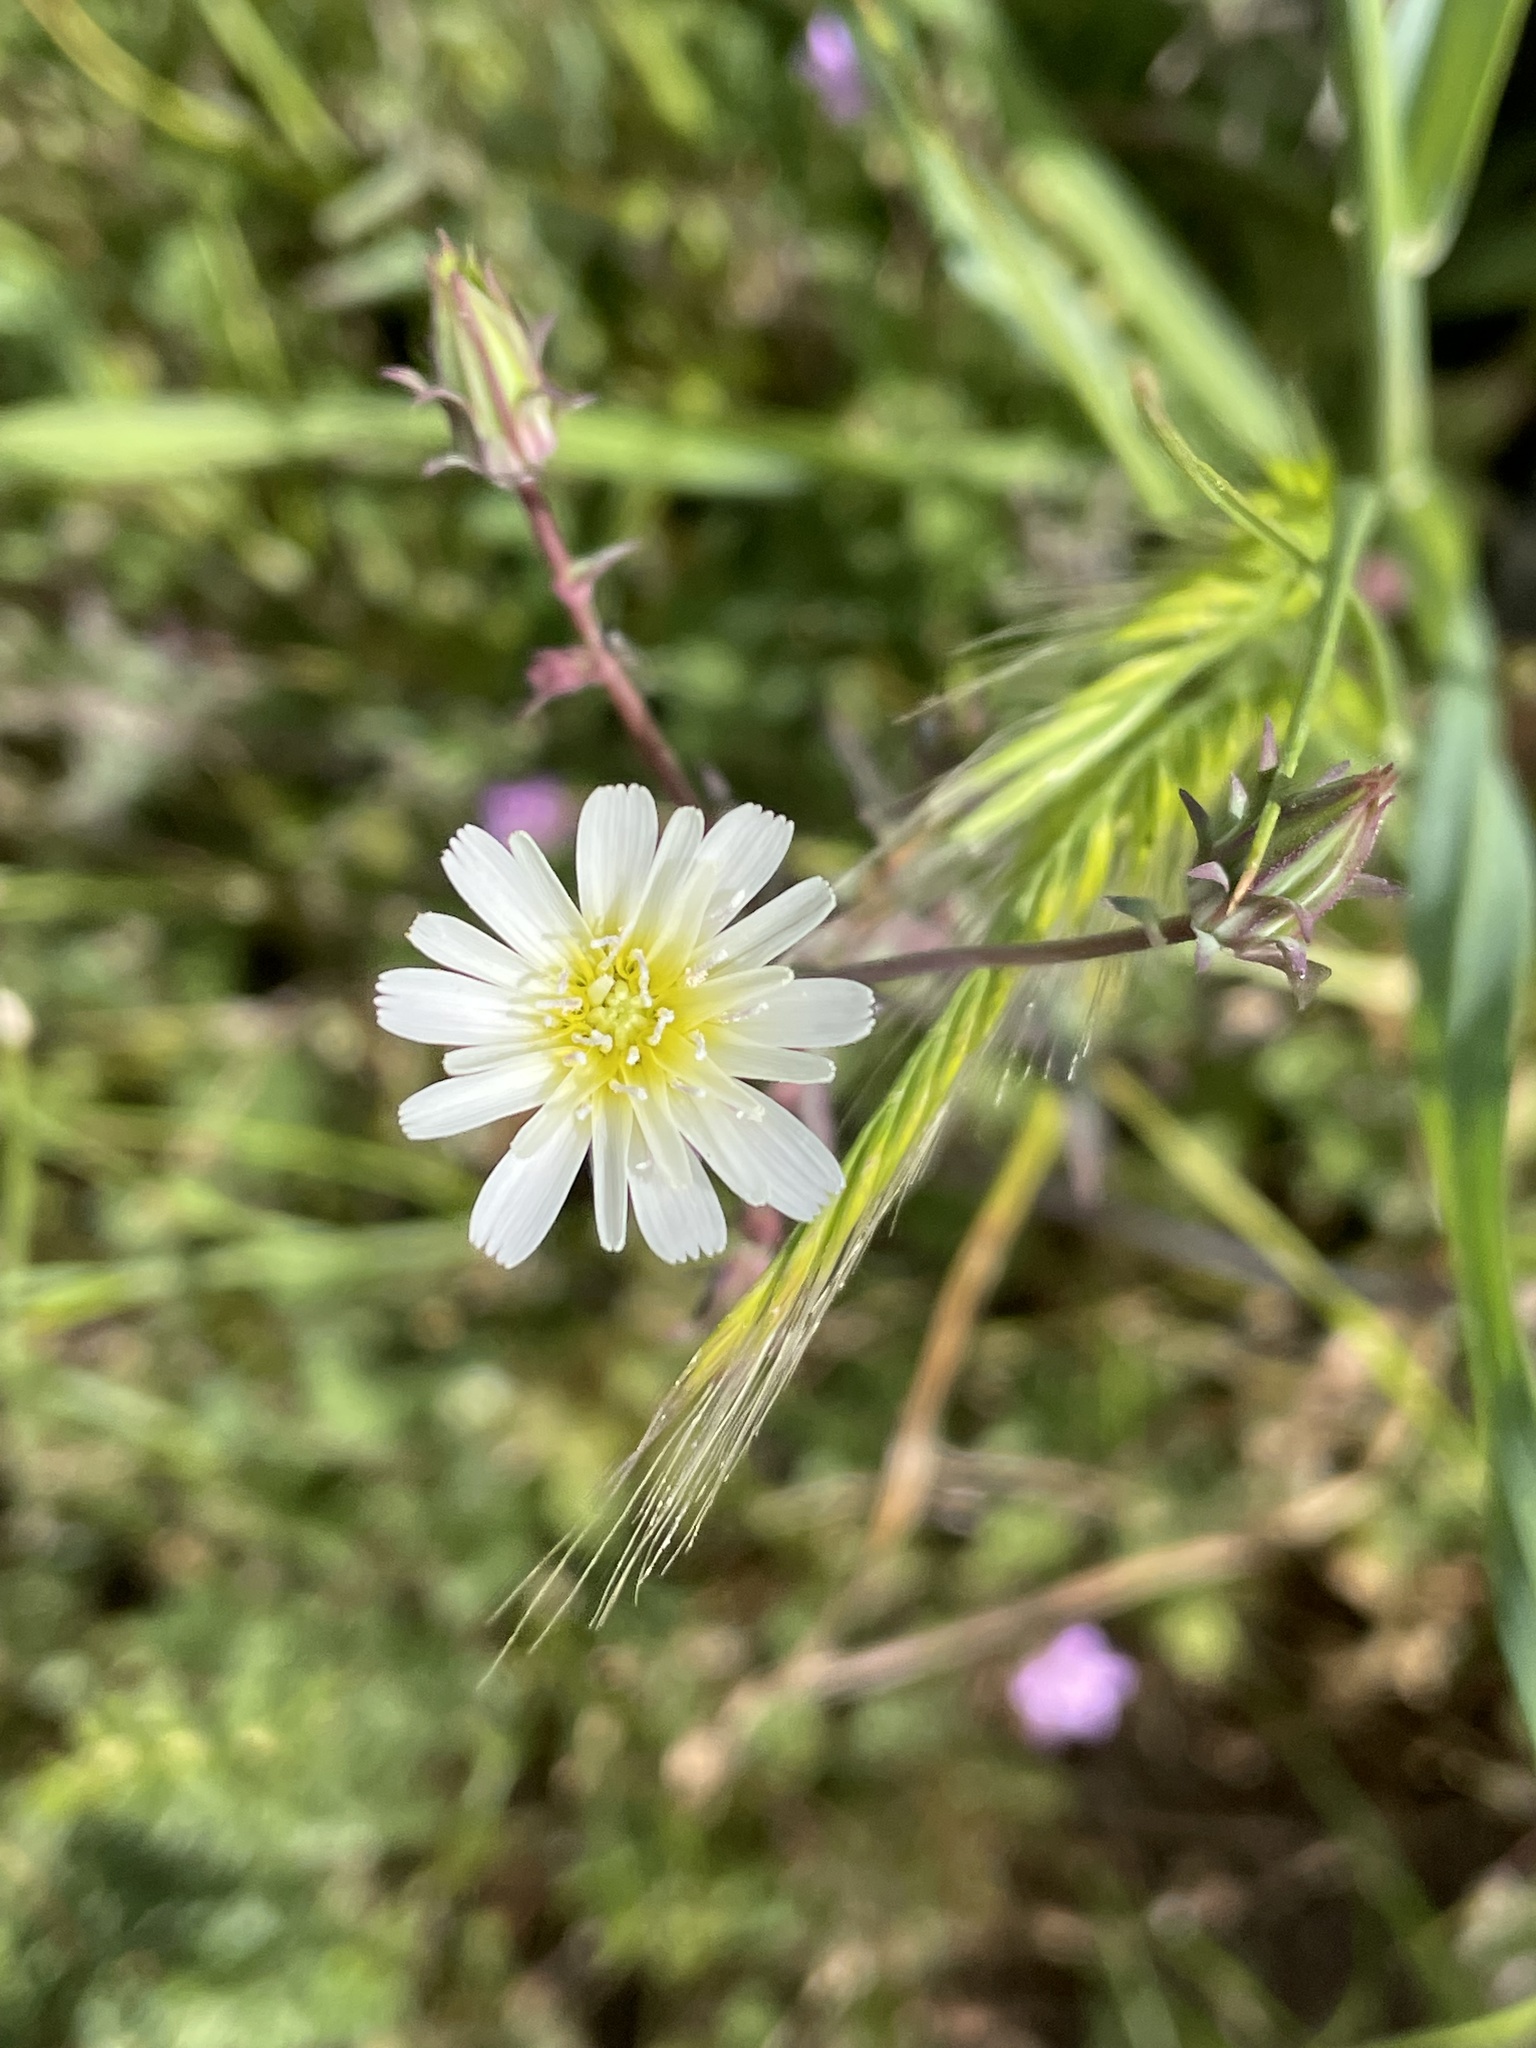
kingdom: Plantae
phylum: Tracheophyta
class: Magnoliopsida
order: Asterales
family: Asteraceae
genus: Rafinesquia
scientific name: Rafinesquia californica
